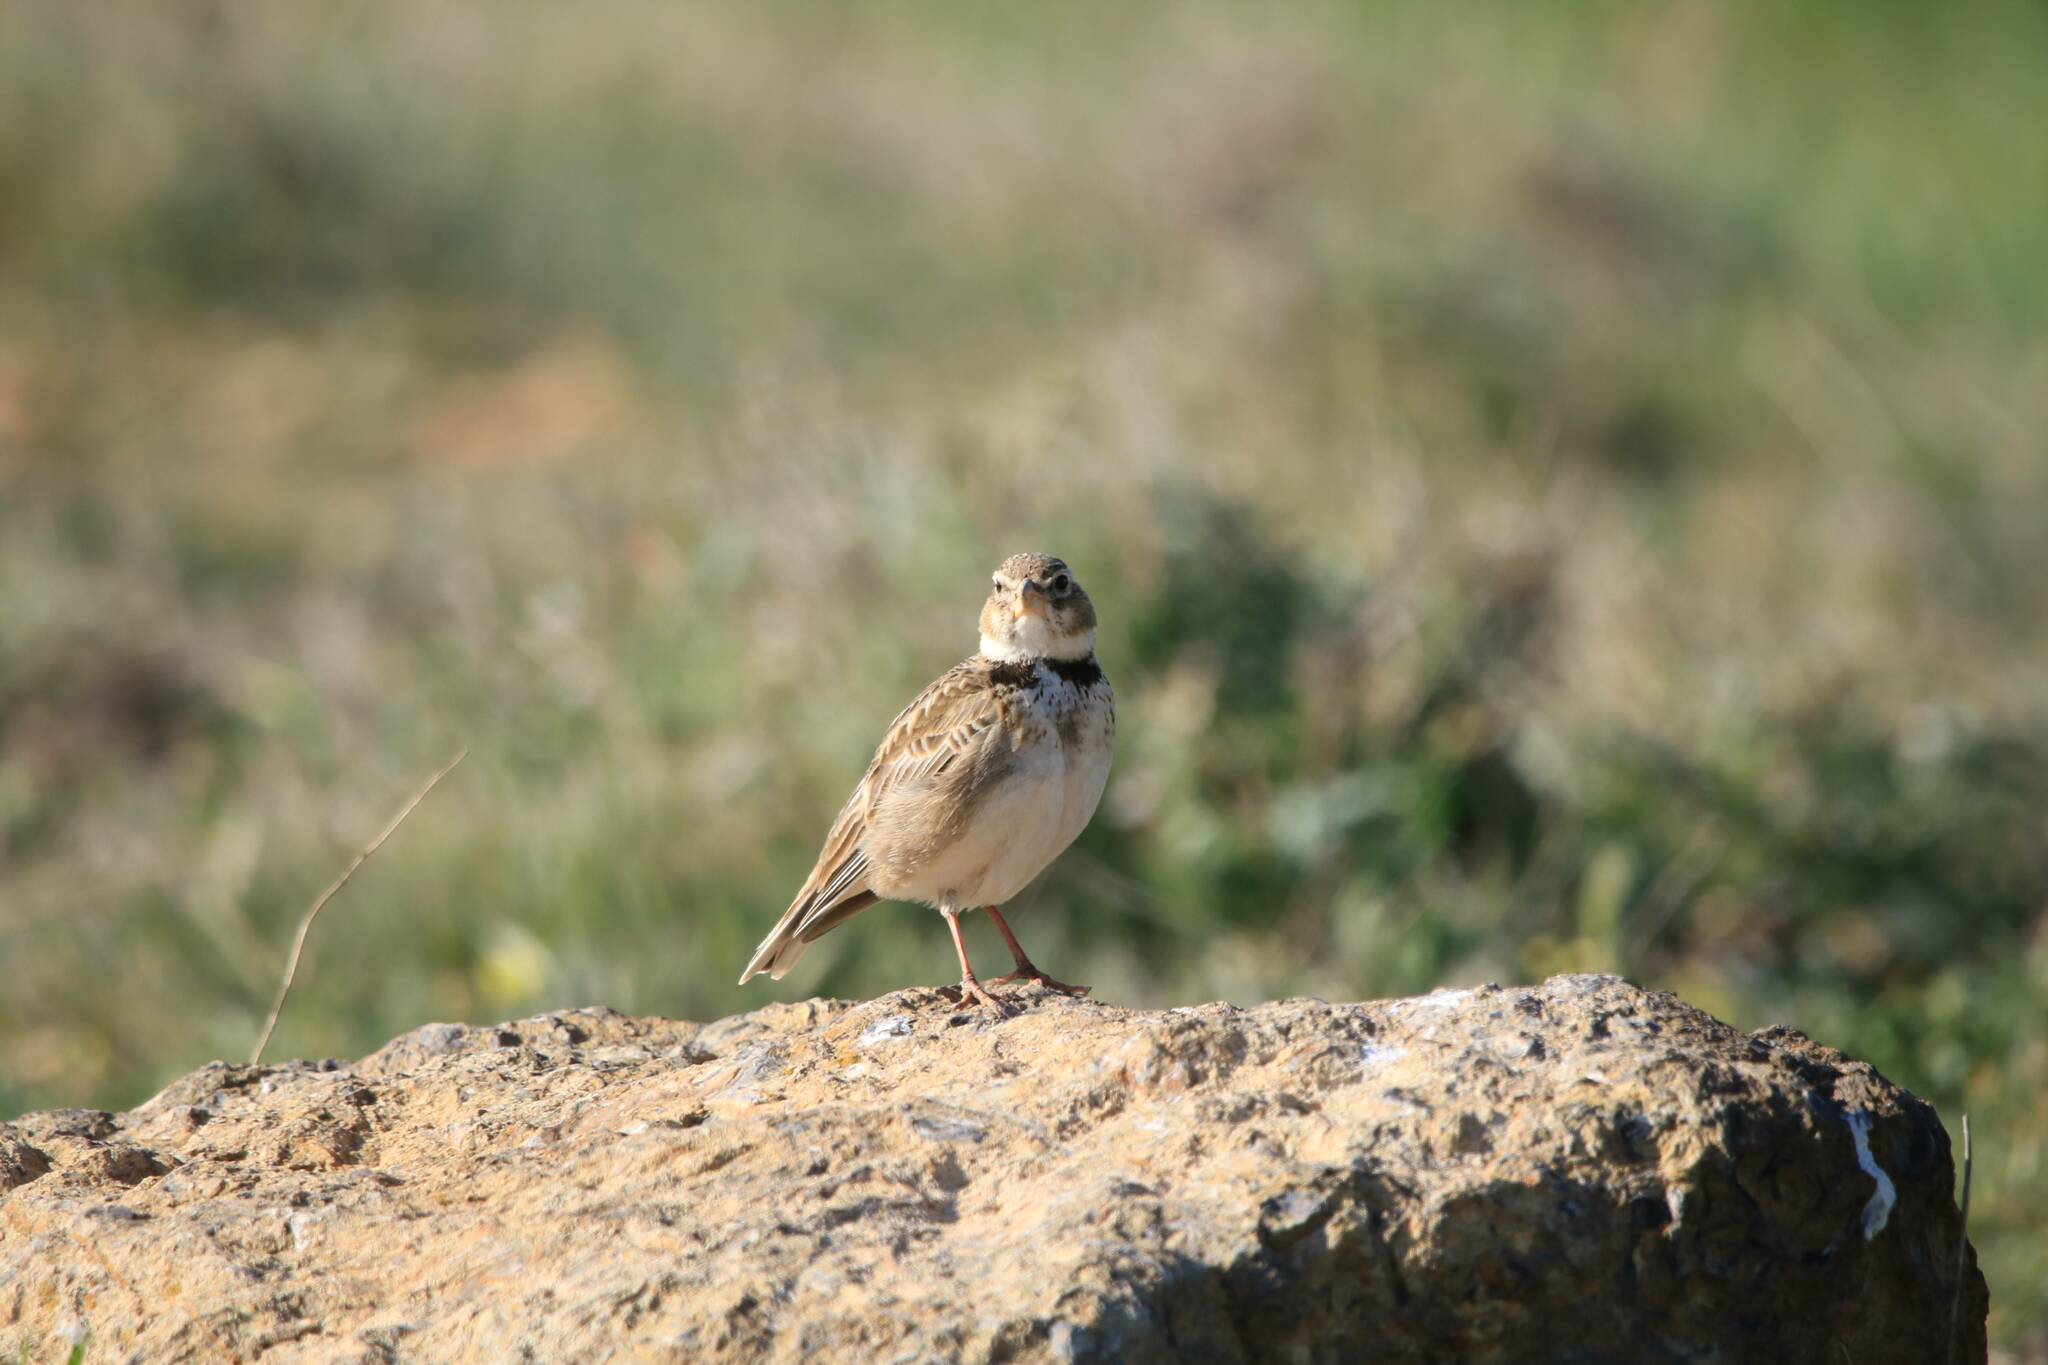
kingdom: Animalia
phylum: Chordata
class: Aves
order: Passeriformes
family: Alaudidae
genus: Melanocorypha
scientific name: Melanocorypha calandra
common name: Calandra lark
